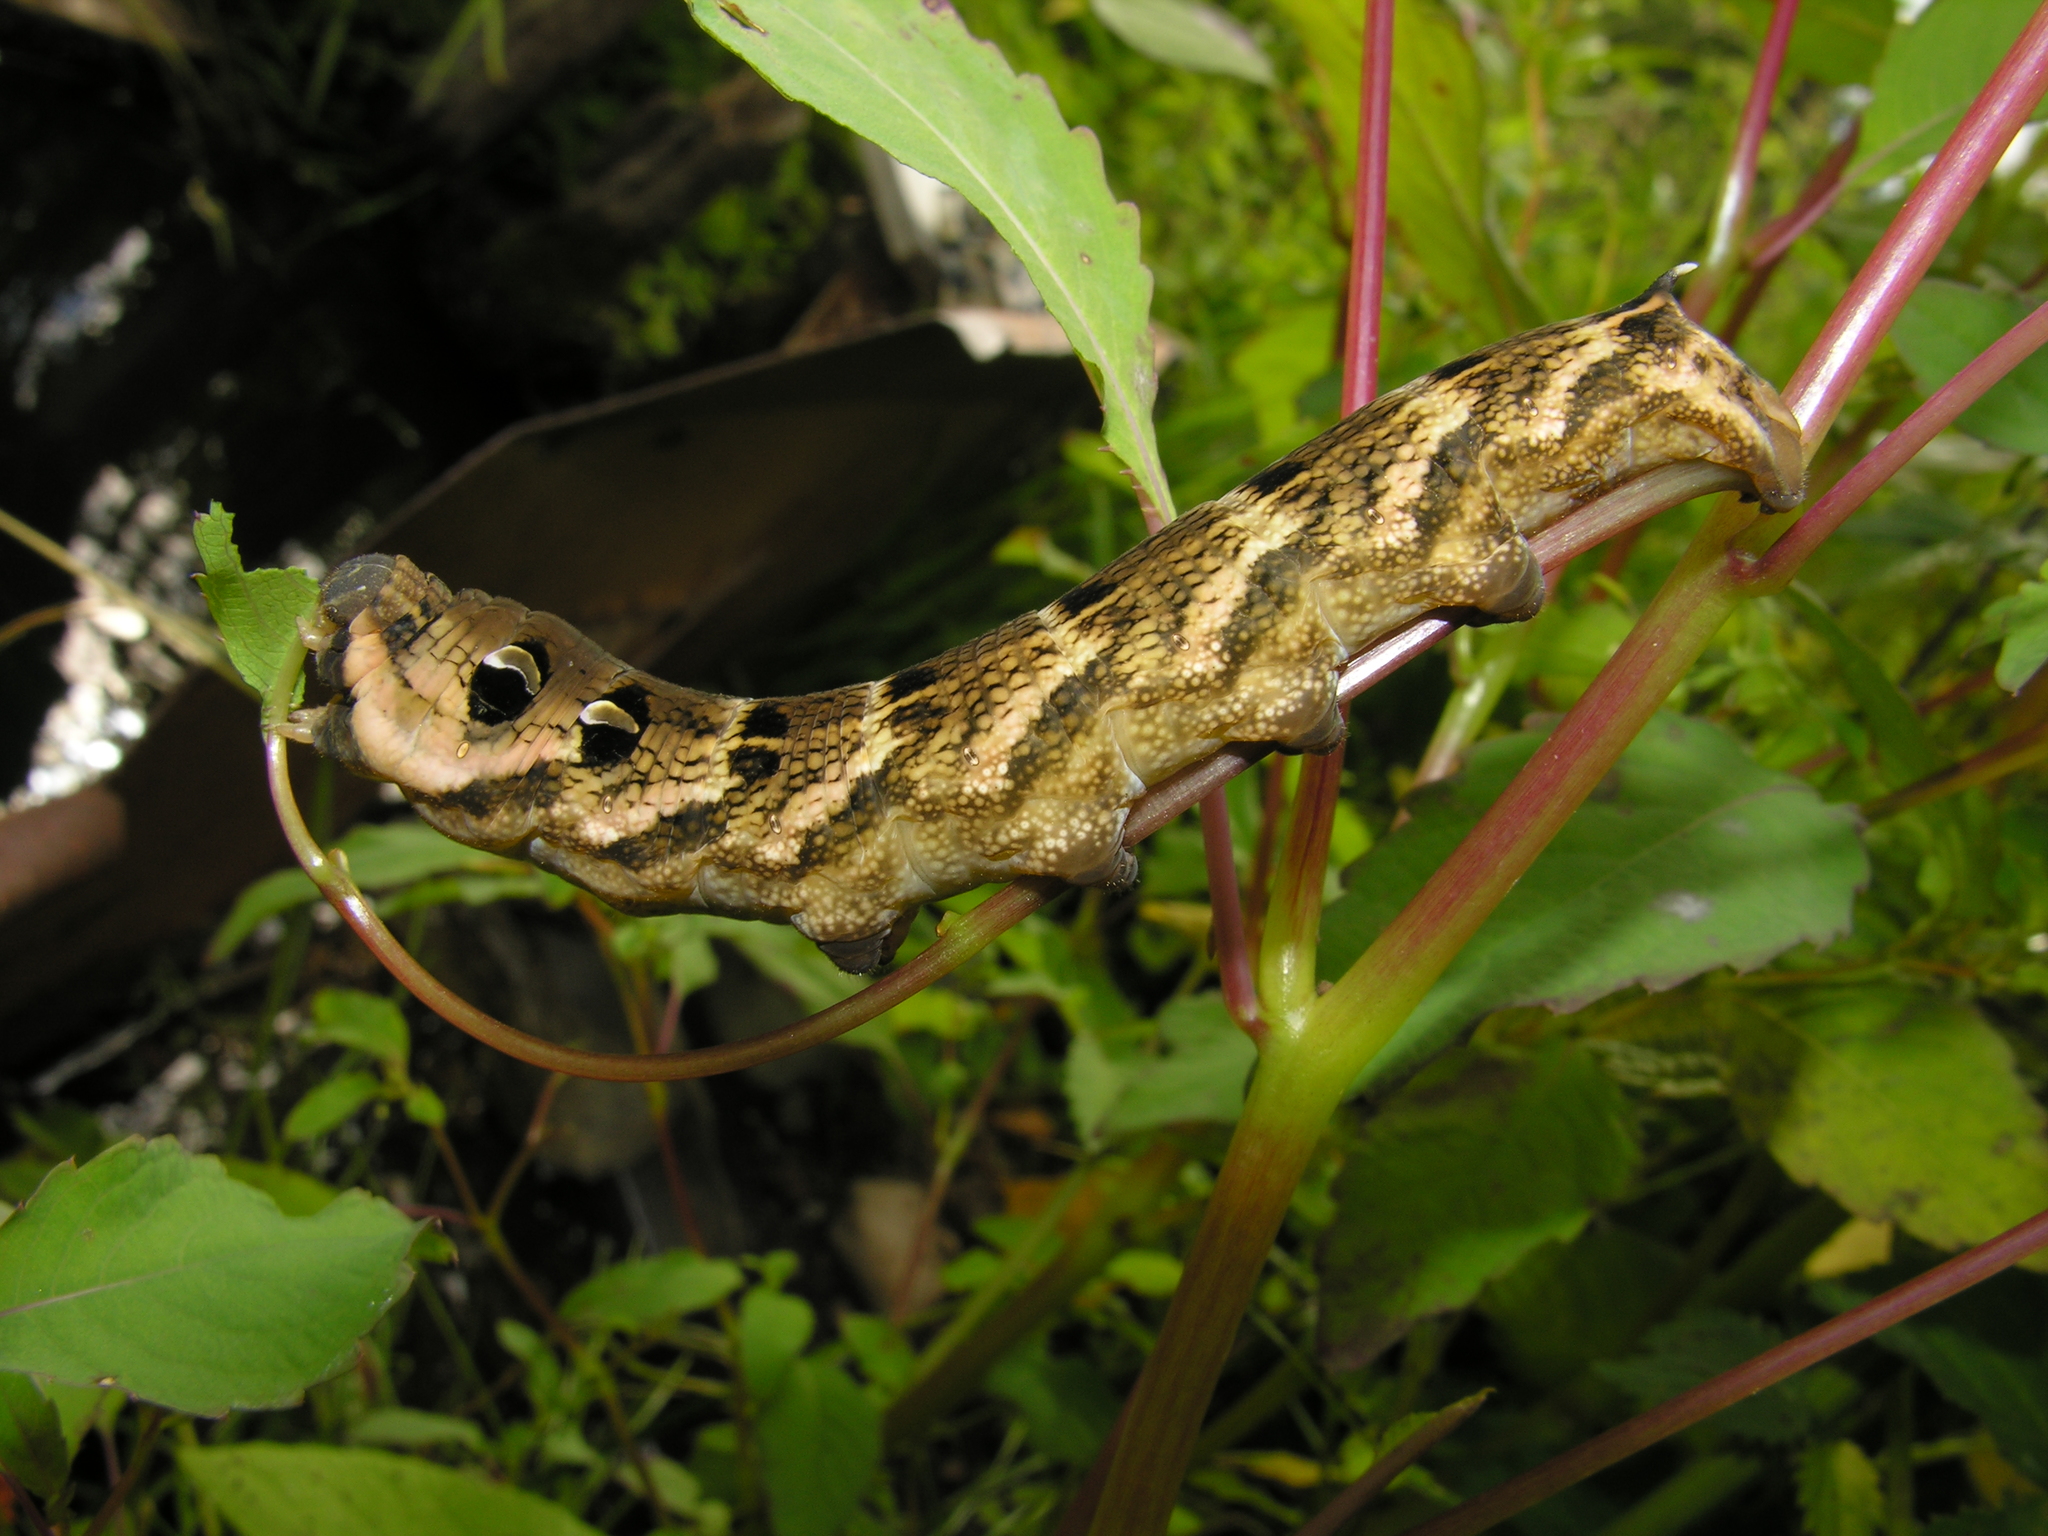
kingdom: Animalia
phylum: Arthropoda
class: Insecta
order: Lepidoptera
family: Sphingidae
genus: Deilephila
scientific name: Deilephila elpenor
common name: Elephant hawk-moth
